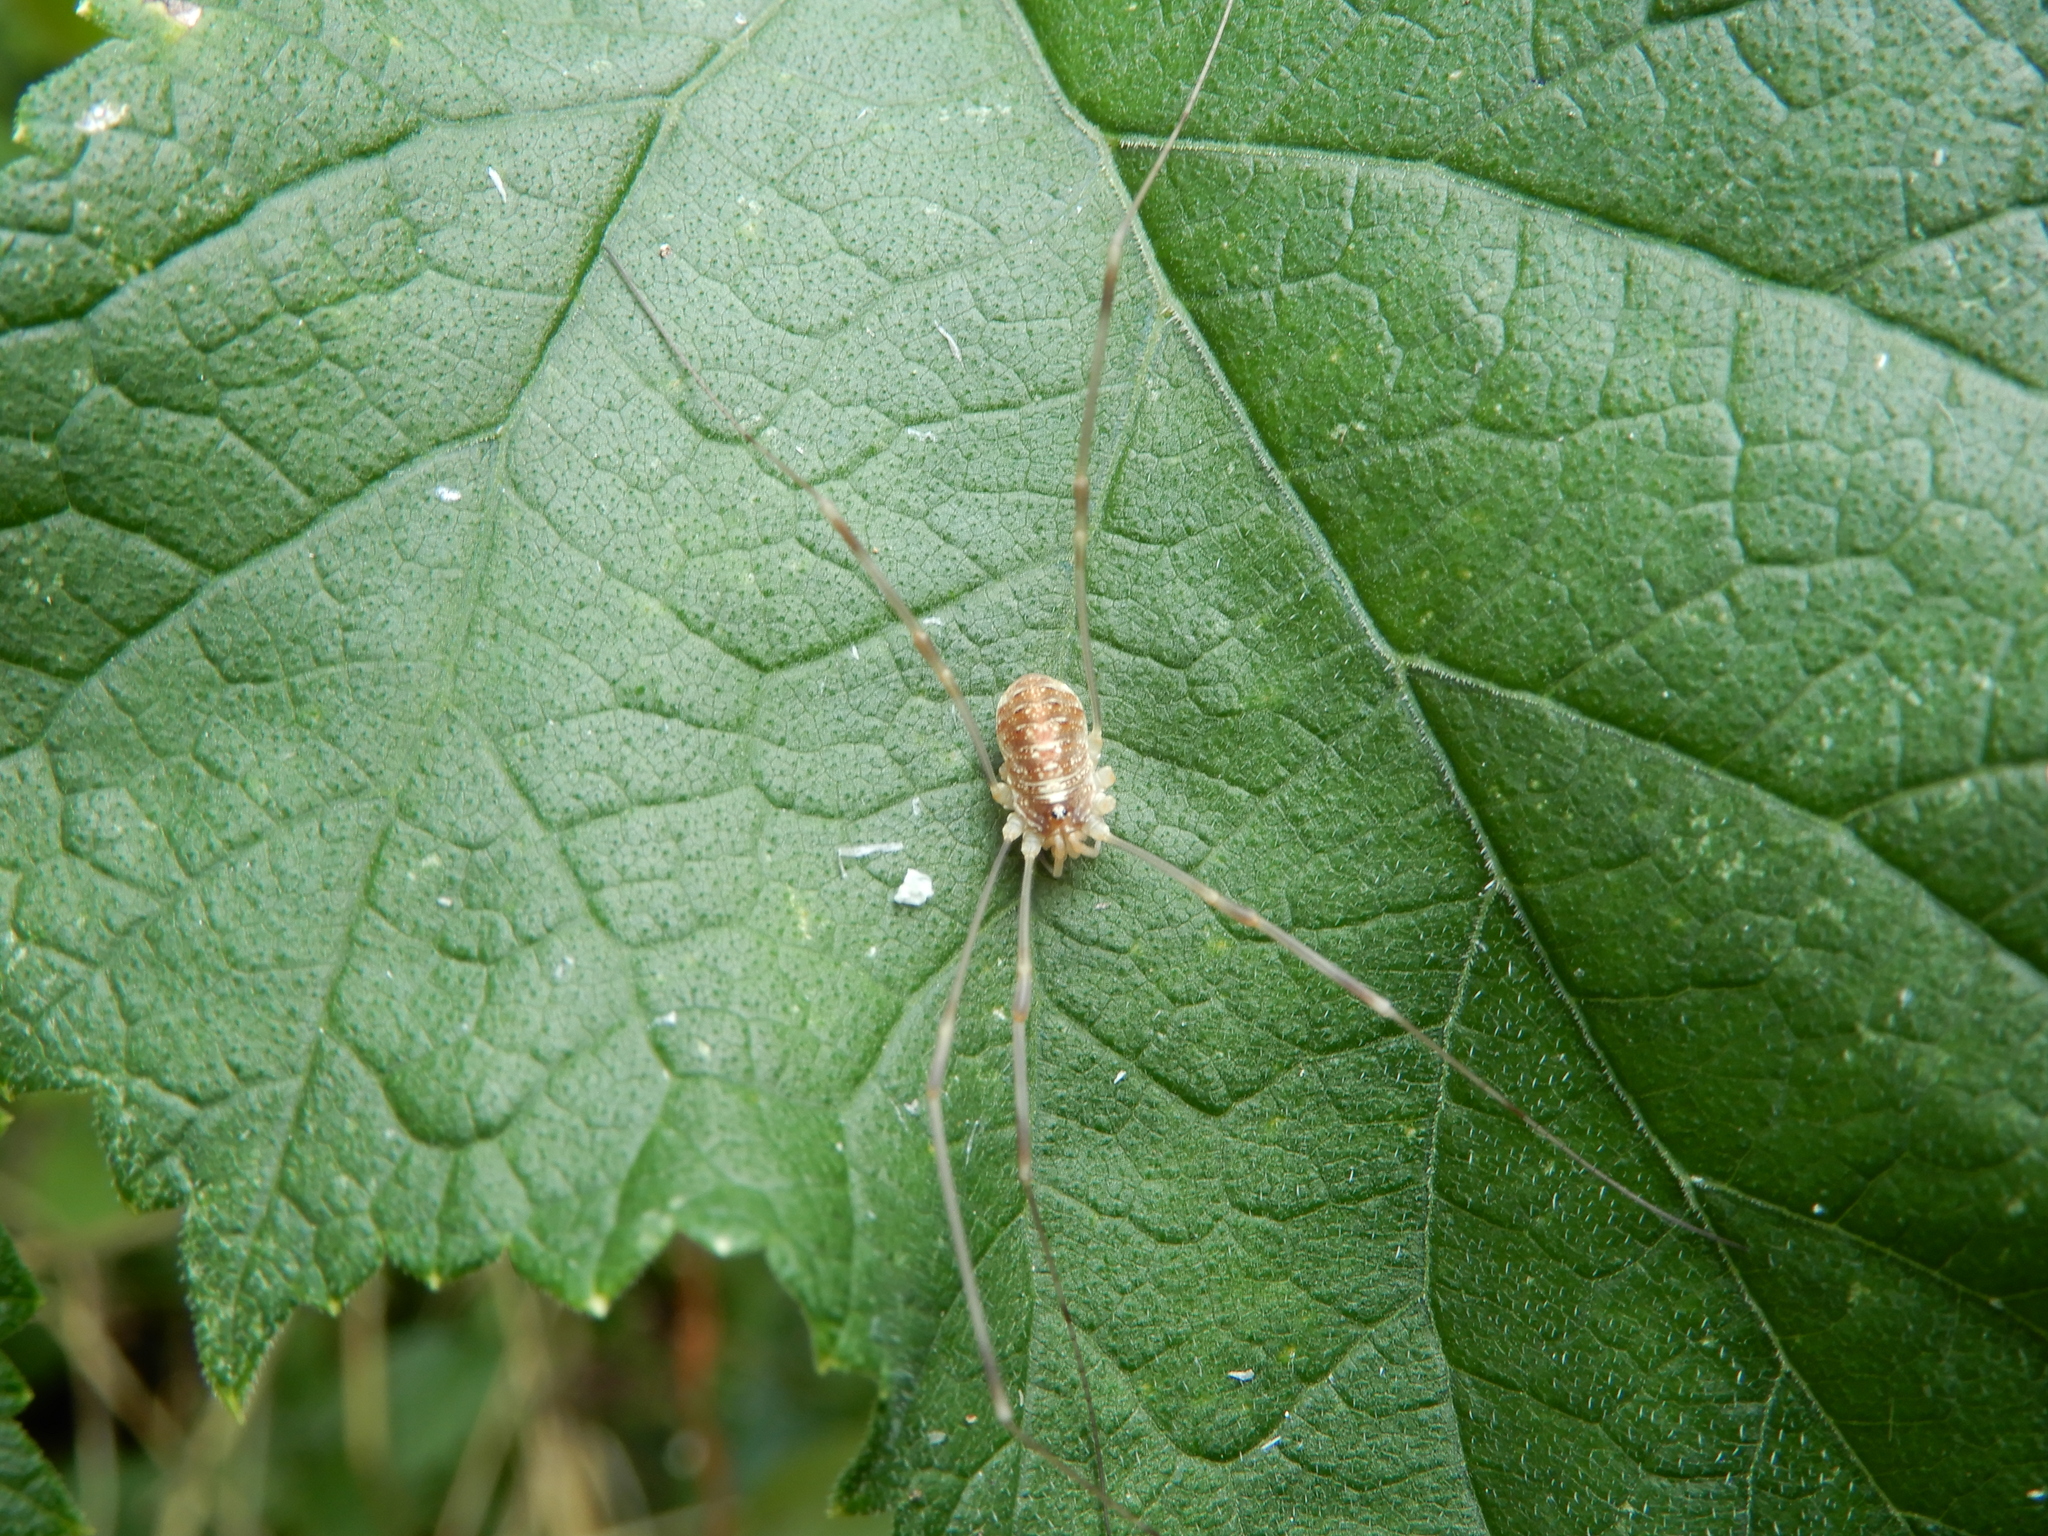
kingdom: Animalia
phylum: Arthropoda
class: Arachnida
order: Opiliones
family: Phalangiidae
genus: Opilio
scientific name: Opilio canestrinii
